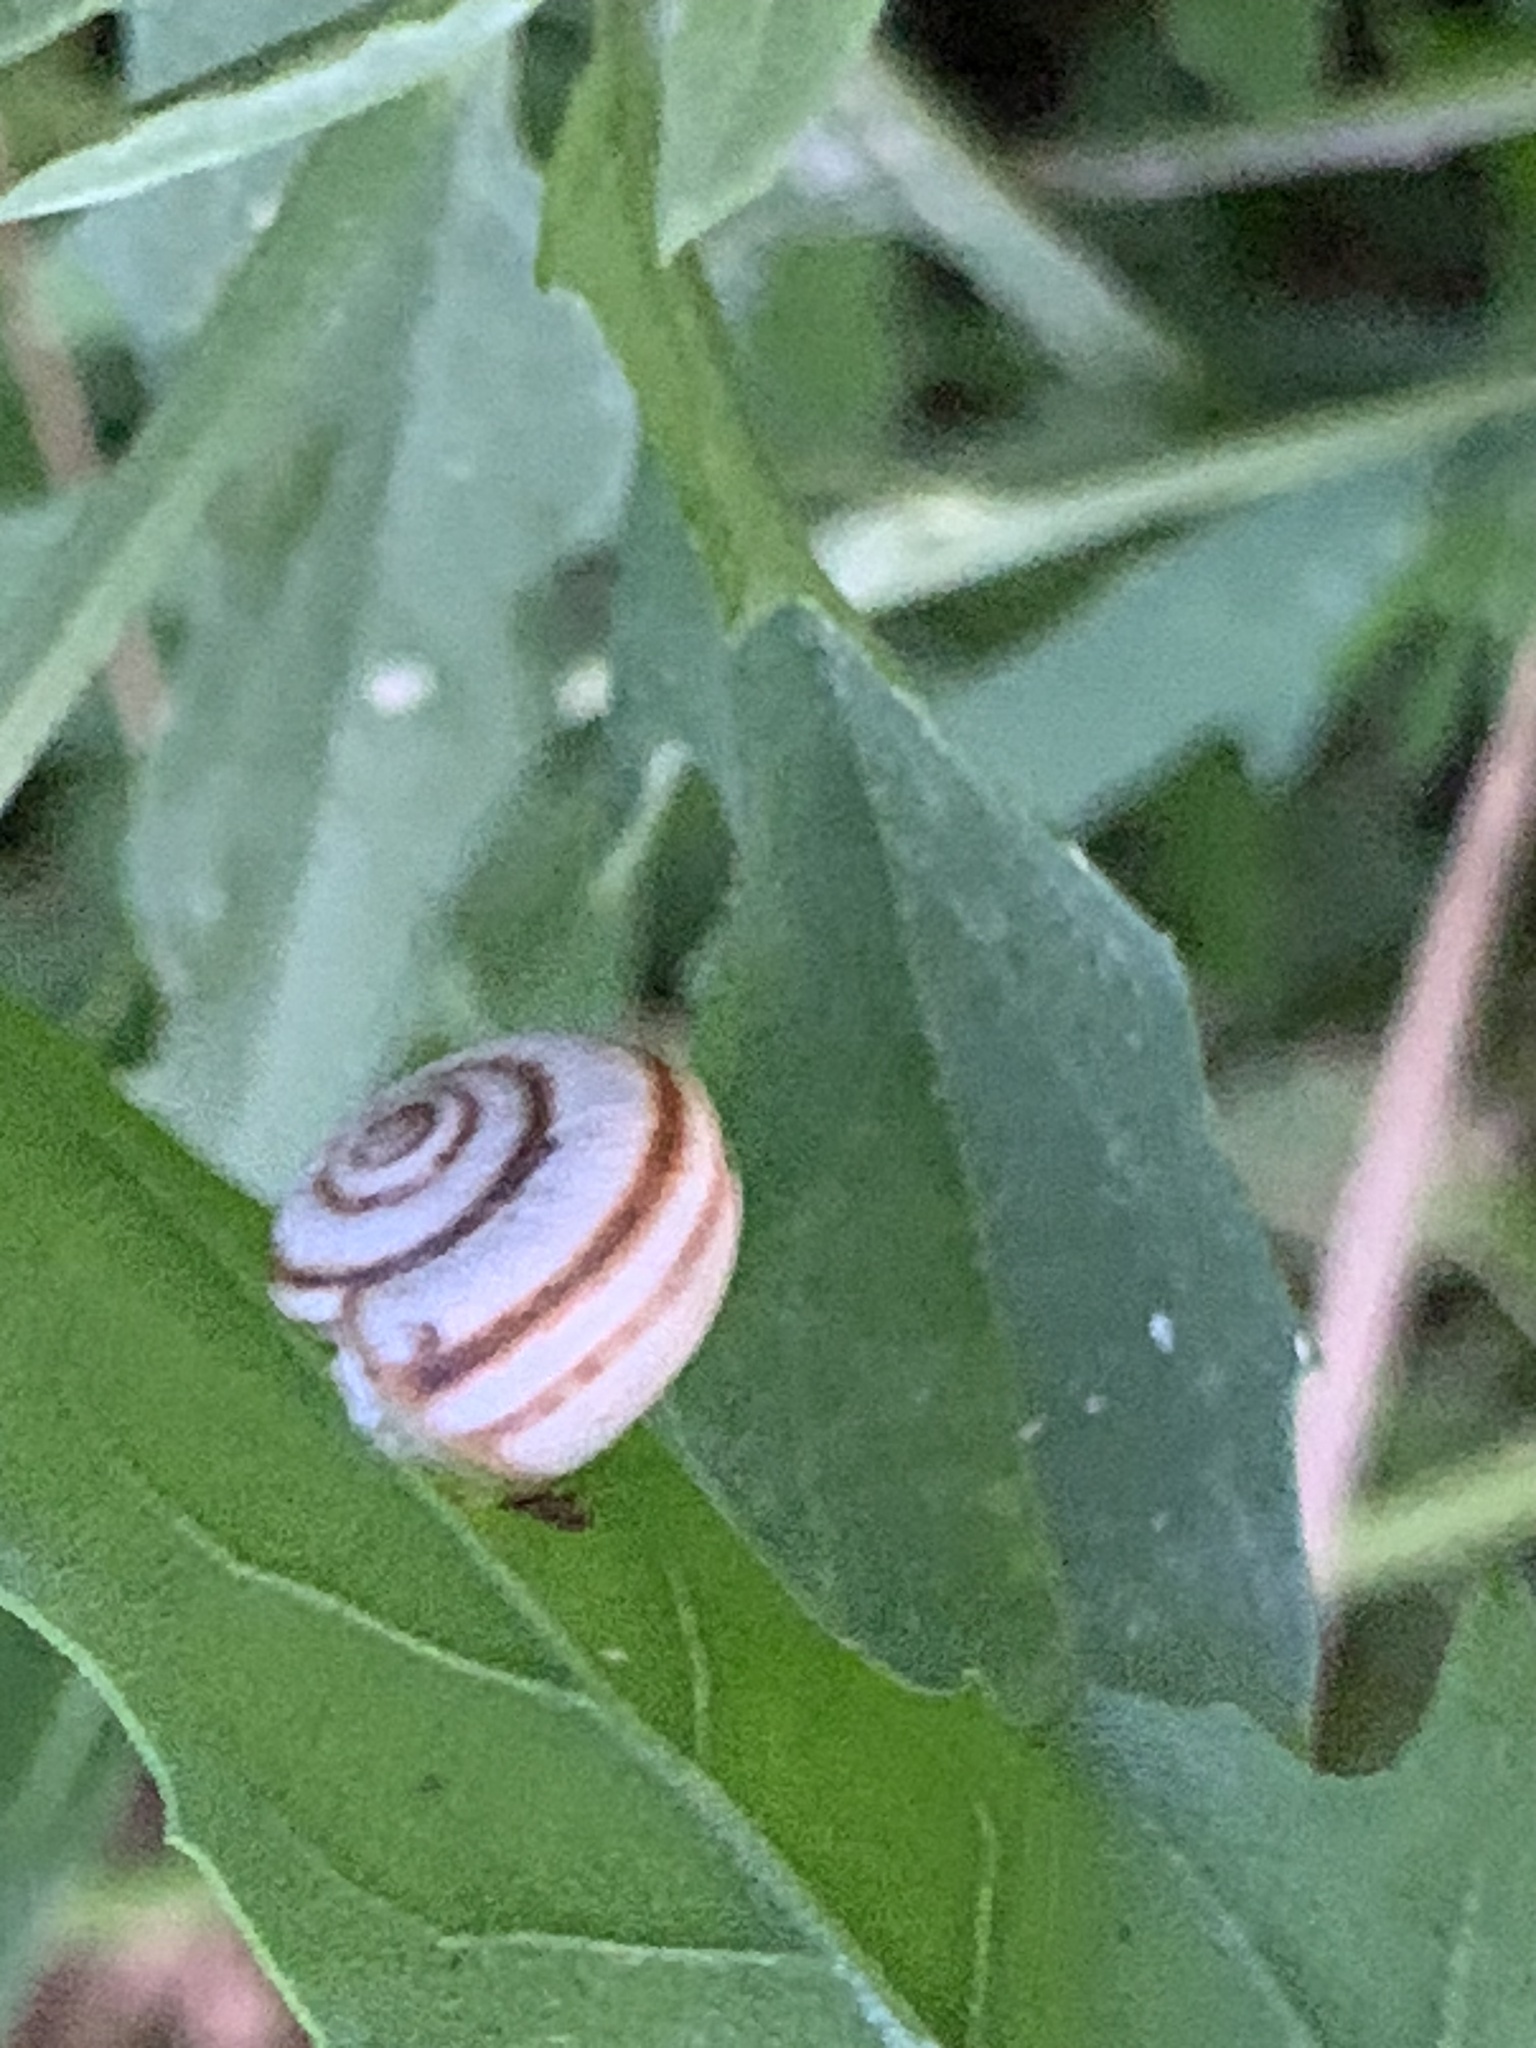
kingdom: Animalia
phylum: Mollusca
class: Gastropoda
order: Stylommatophora
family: Geomitridae
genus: Xeropicta
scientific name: Xeropicta derbentina
